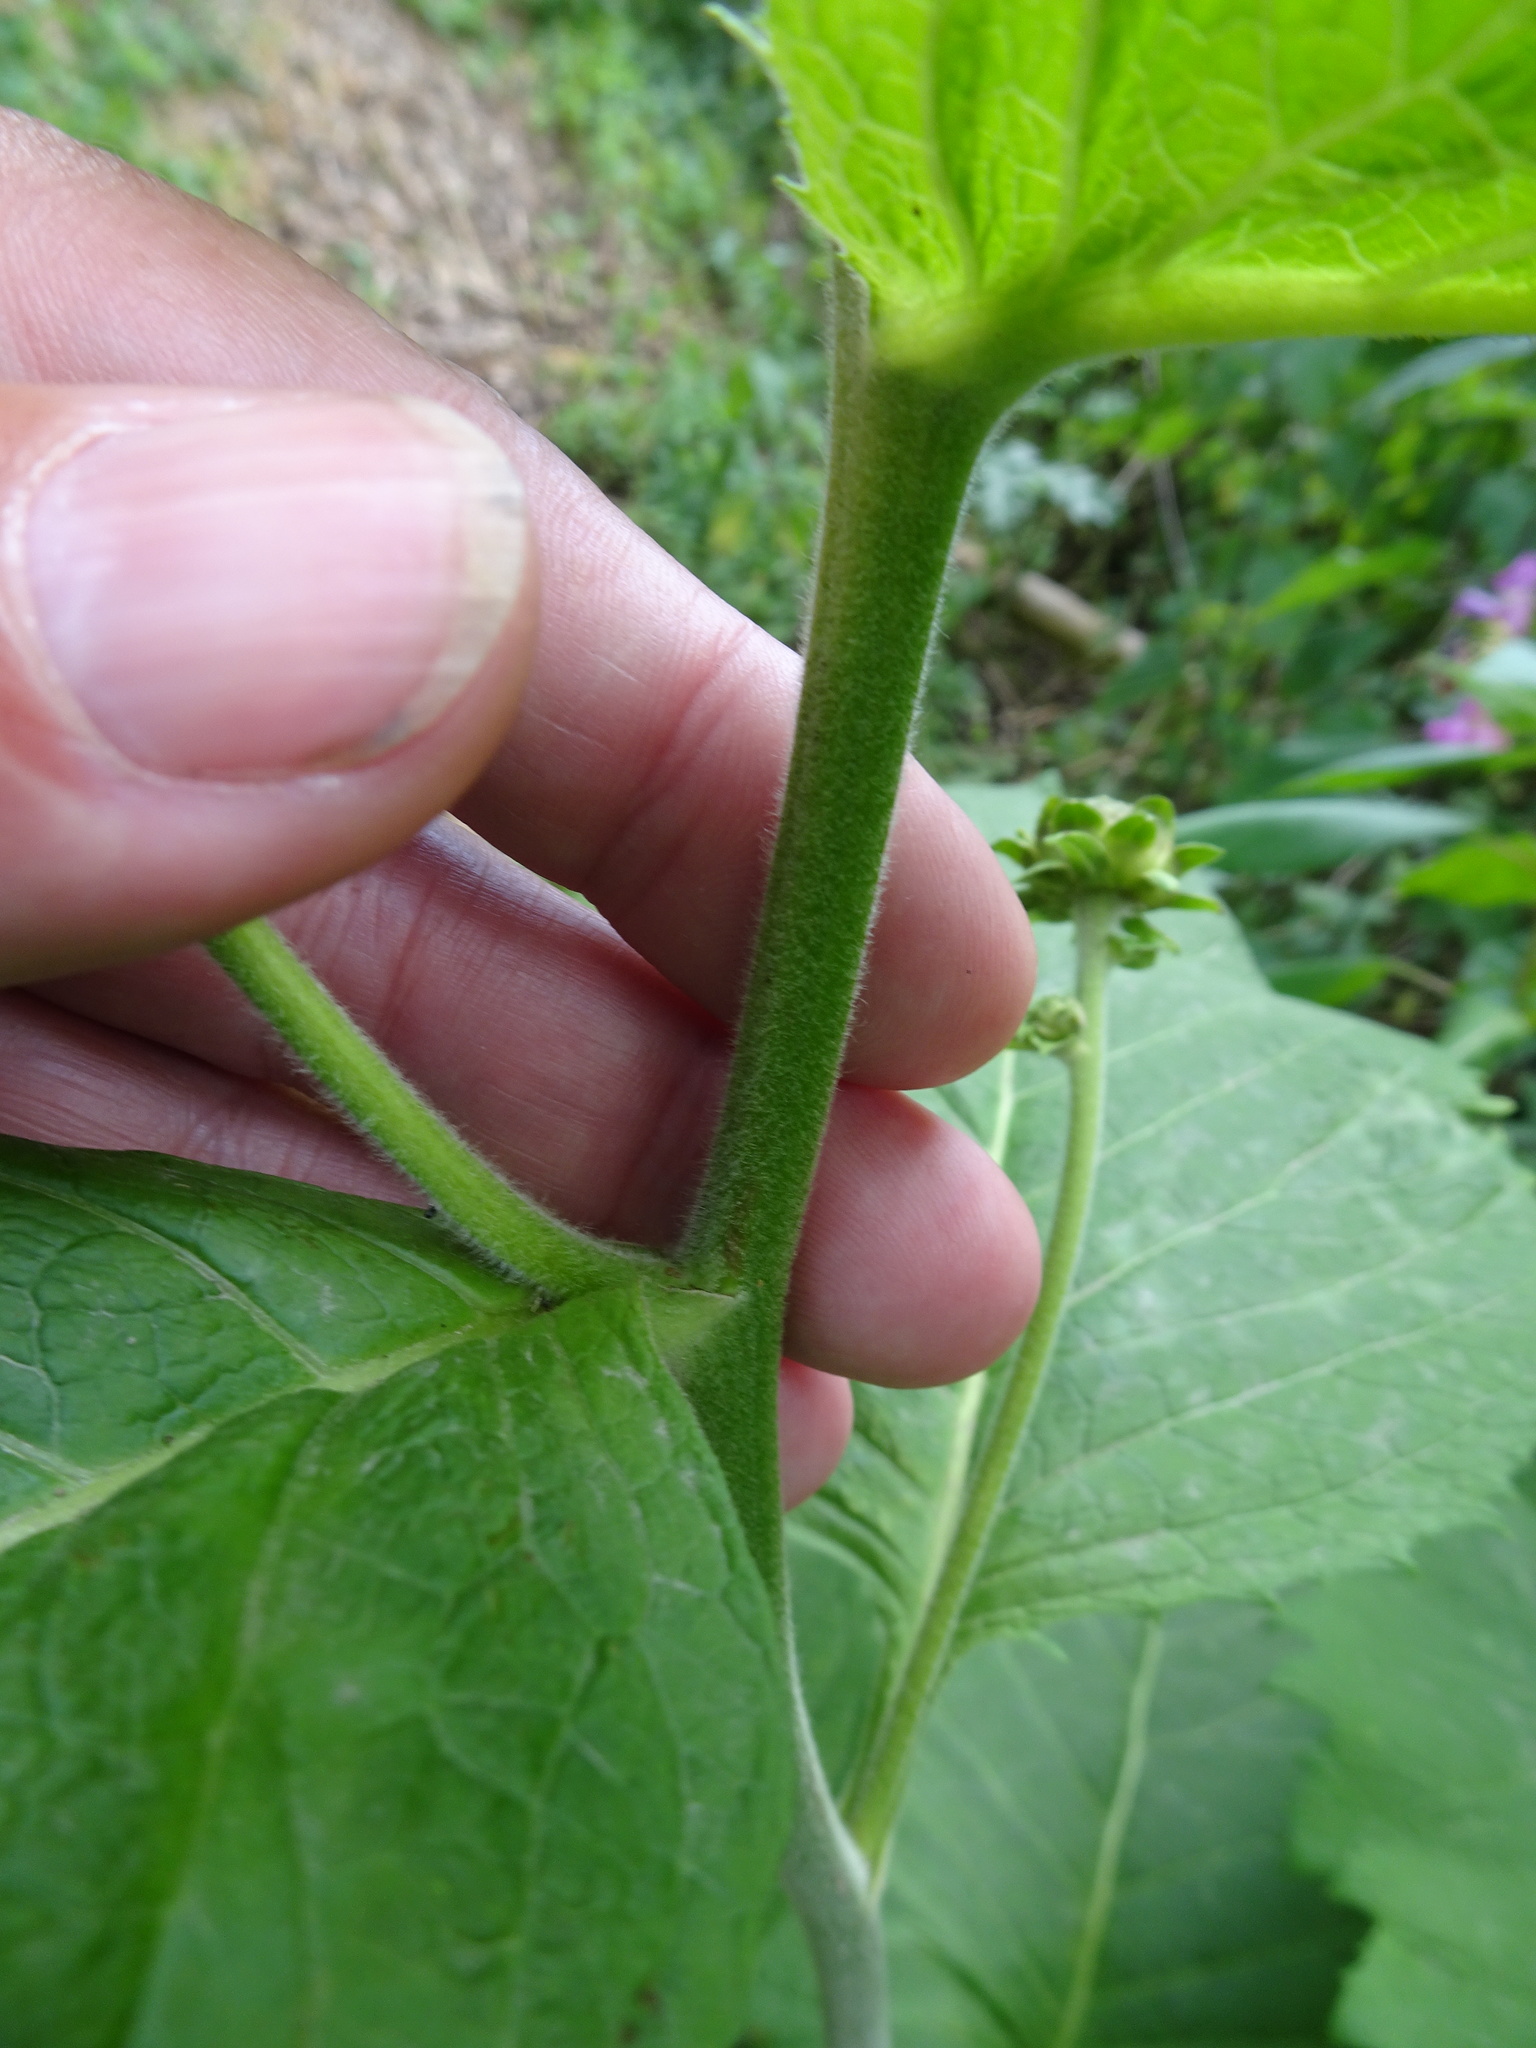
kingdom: Plantae
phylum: Tracheophyta
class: Magnoliopsida
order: Asterales
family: Asteraceae
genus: Telekia
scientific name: Telekia speciosa
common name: Yellow oxeye
